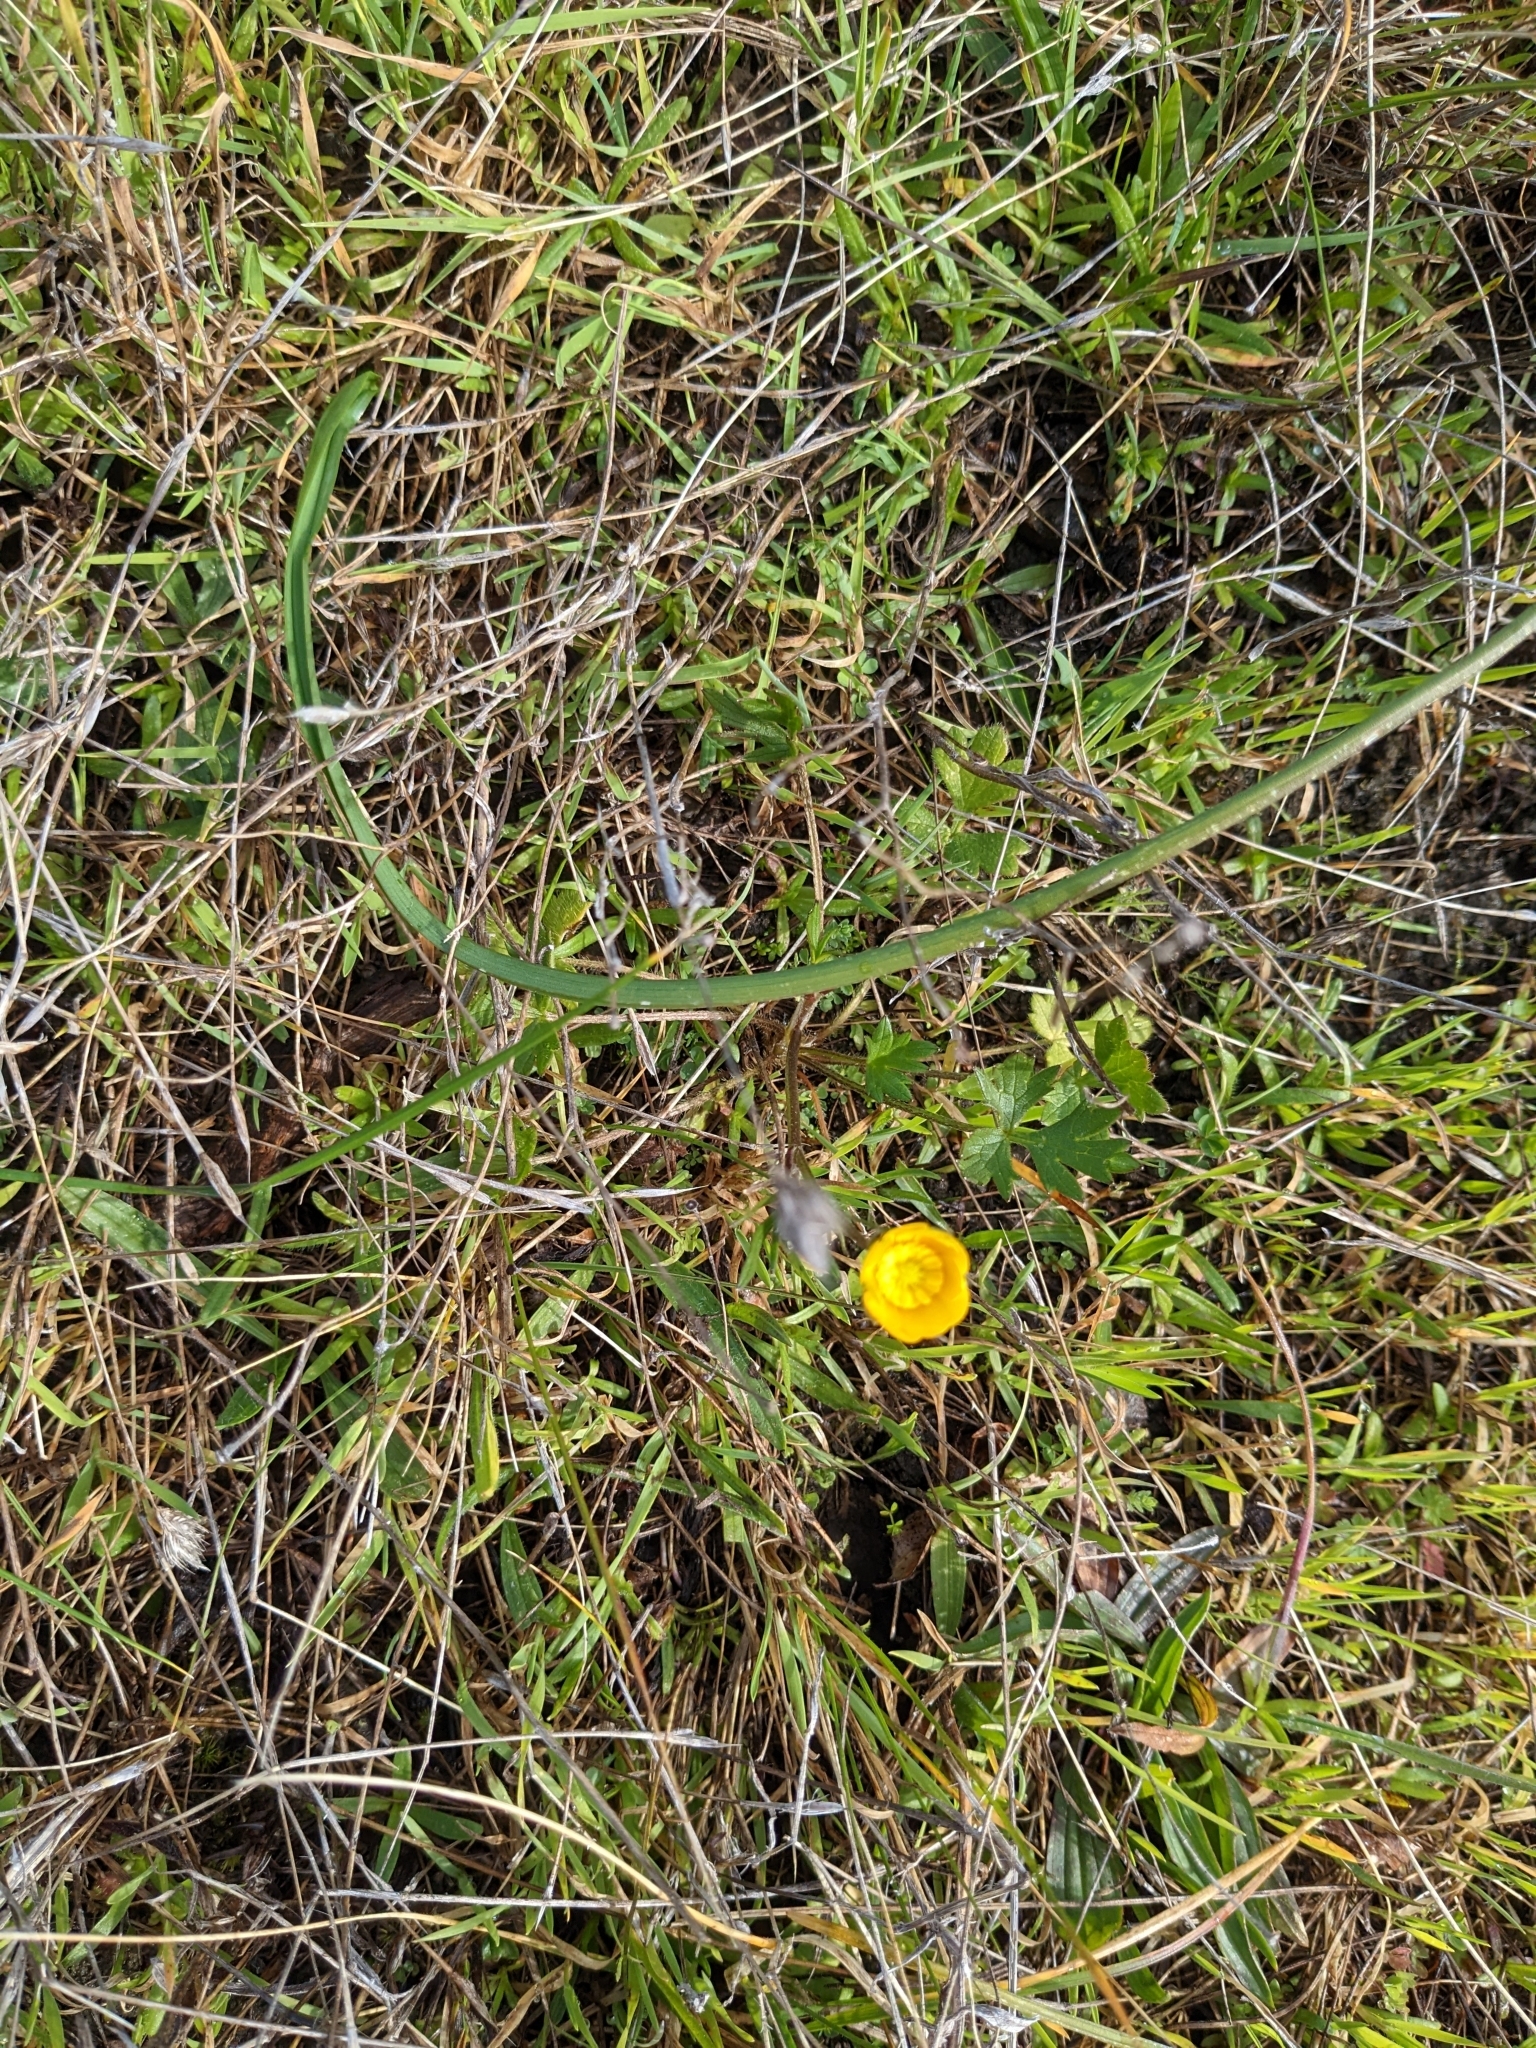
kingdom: Plantae
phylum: Tracheophyta
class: Magnoliopsida
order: Ranunculales
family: Ranunculaceae
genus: Ranunculus
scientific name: Ranunculus californicus
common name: California buttercup
